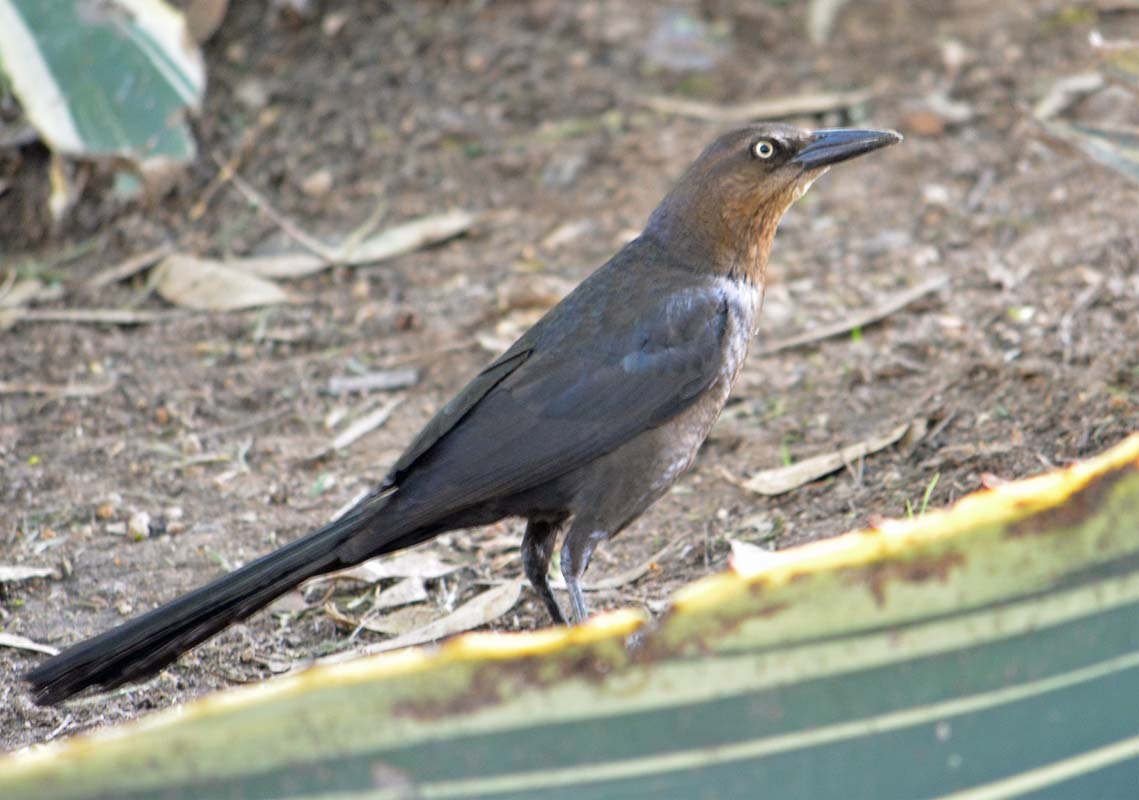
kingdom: Animalia
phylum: Chordata
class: Aves
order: Passeriformes
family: Icteridae
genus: Quiscalus
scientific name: Quiscalus mexicanus
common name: Great-tailed grackle
